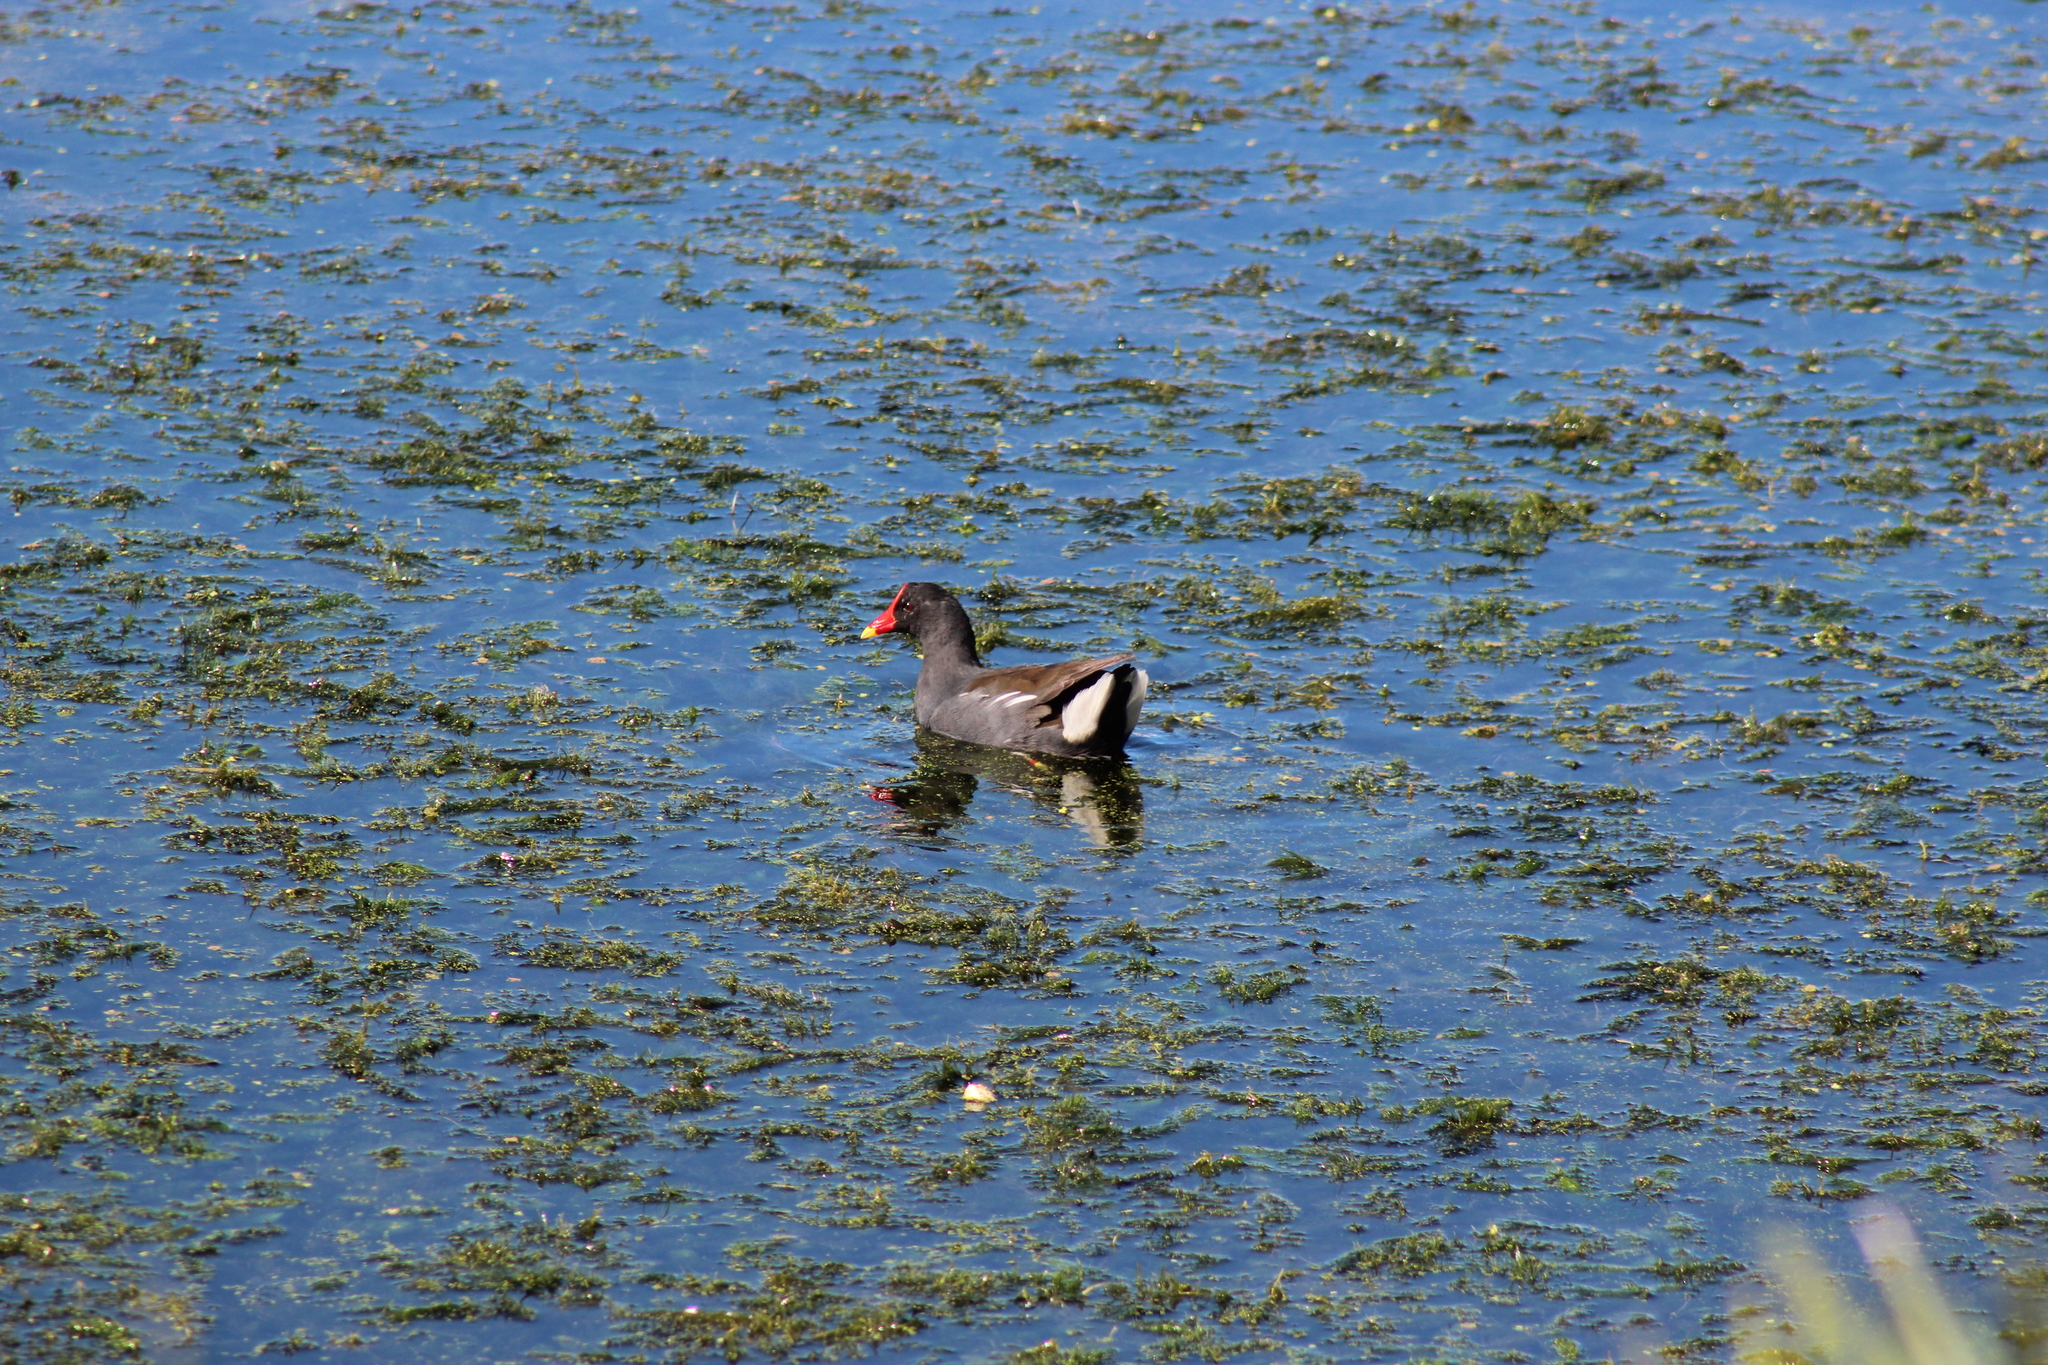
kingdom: Animalia
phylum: Chordata
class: Aves
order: Gruiformes
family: Rallidae
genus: Gallinula
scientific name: Gallinula chloropus
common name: Common moorhen
